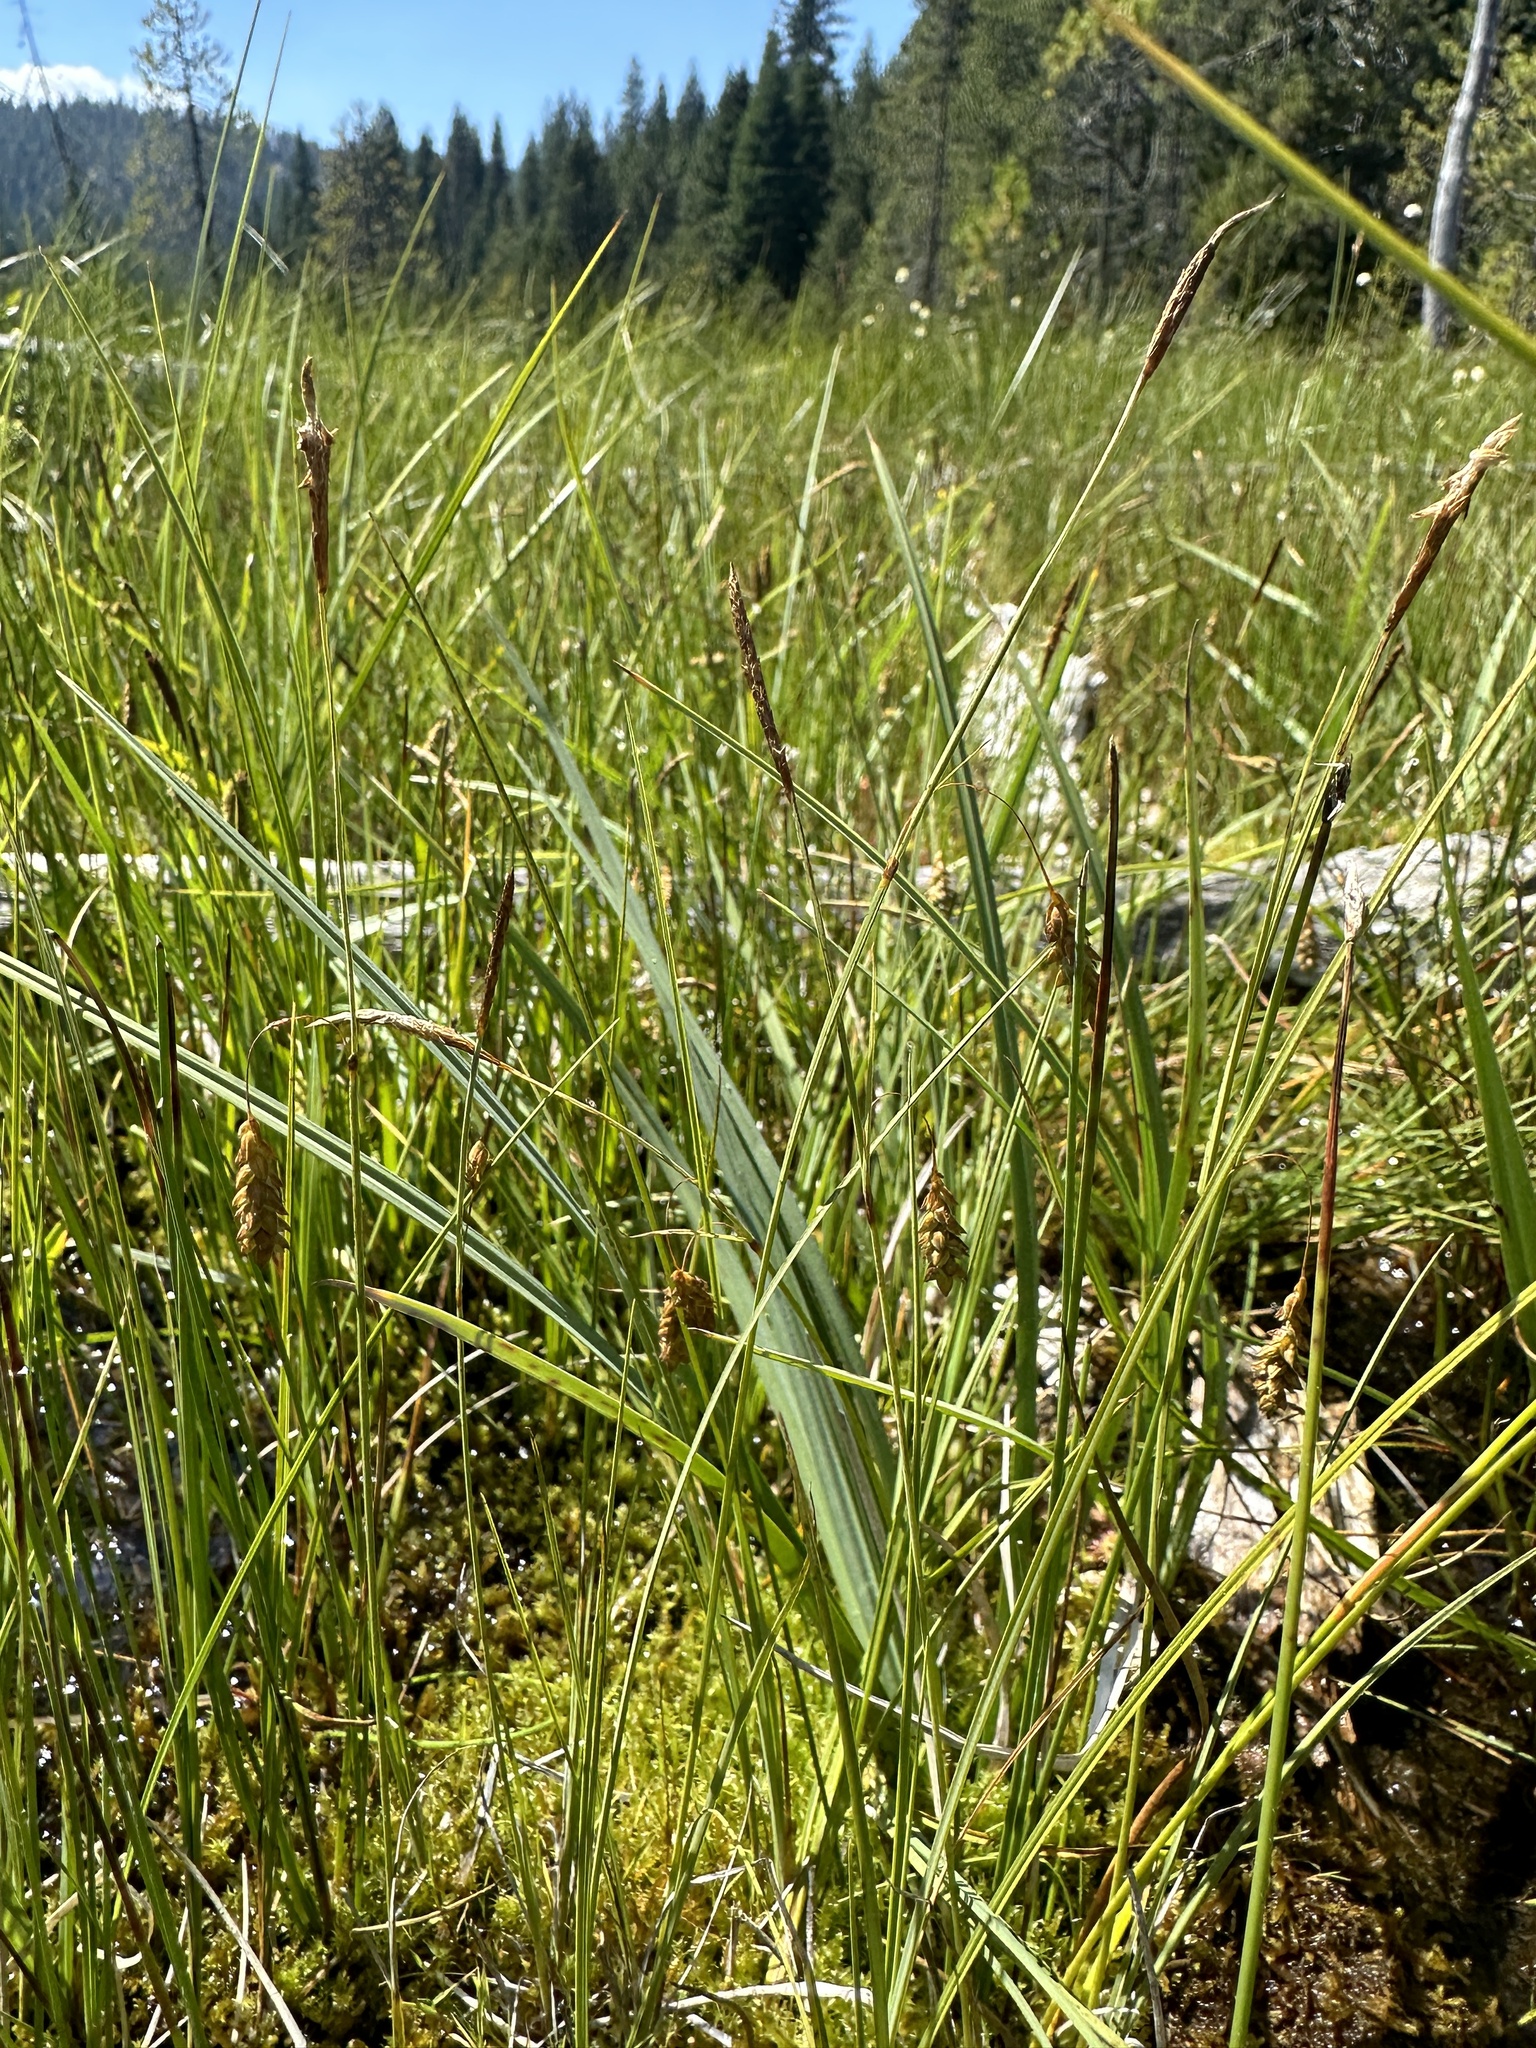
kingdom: Plantae
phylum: Tracheophyta
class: Liliopsida
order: Poales
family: Cyperaceae
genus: Carex
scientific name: Carex limosa
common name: Bog sedge
